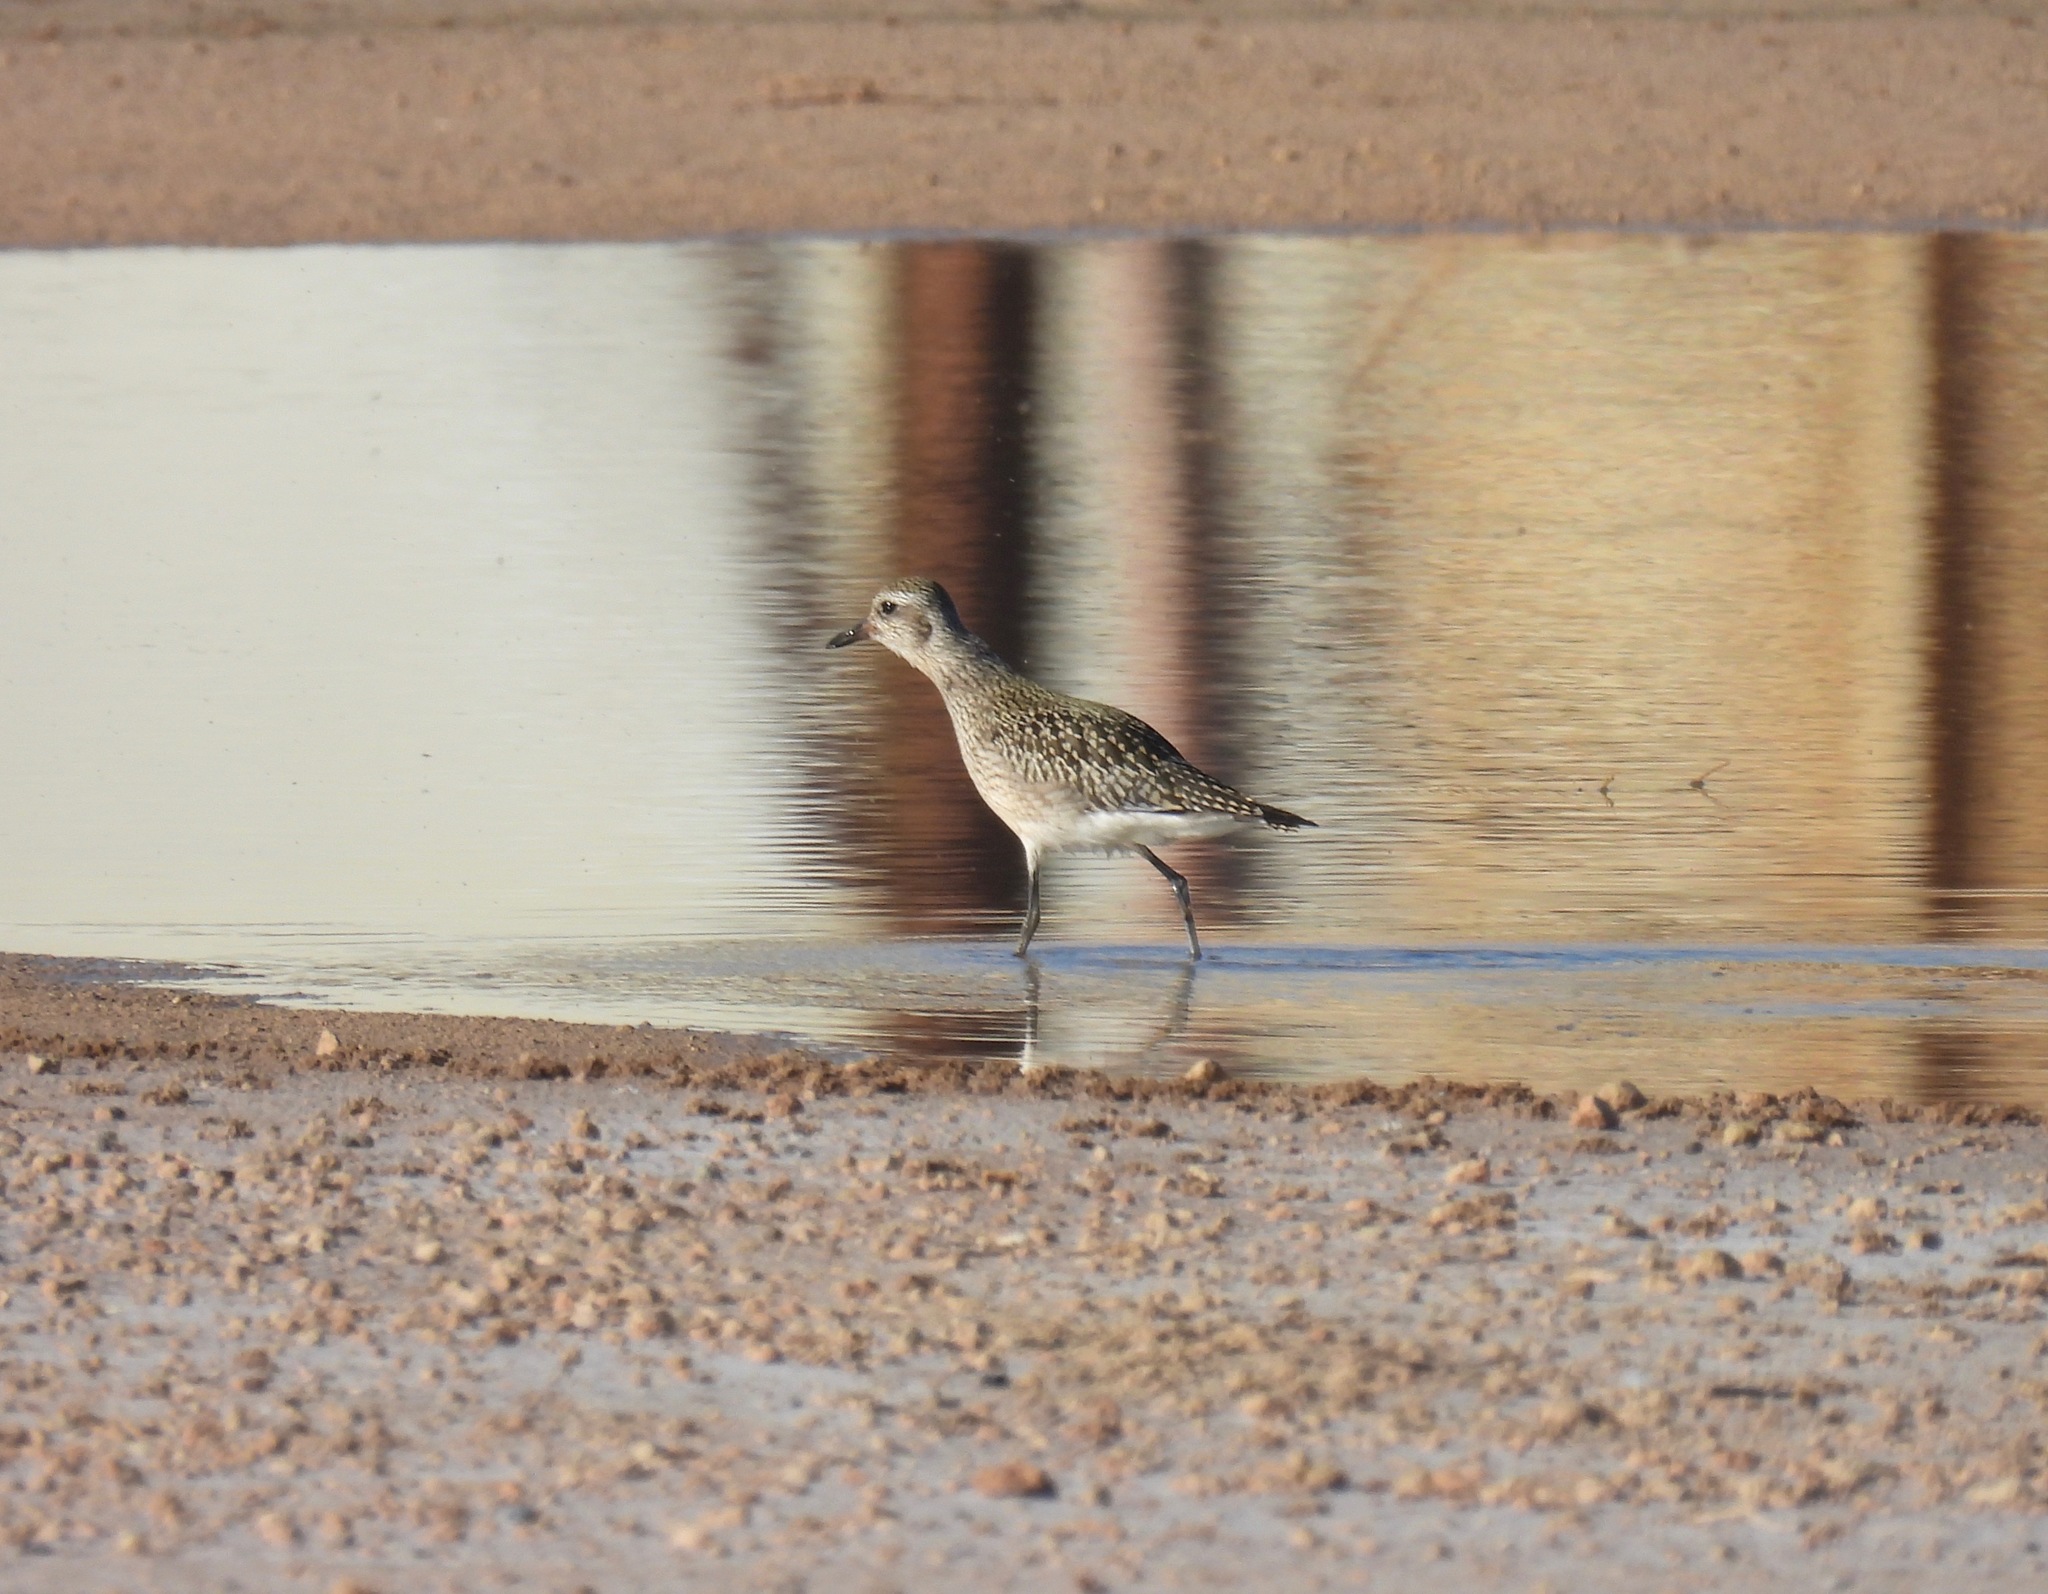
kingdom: Animalia
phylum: Chordata
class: Aves
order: Charadriiformes
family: Charadriidae
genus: Pluvialis
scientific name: Pluvialis squatarola
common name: Grey plover
